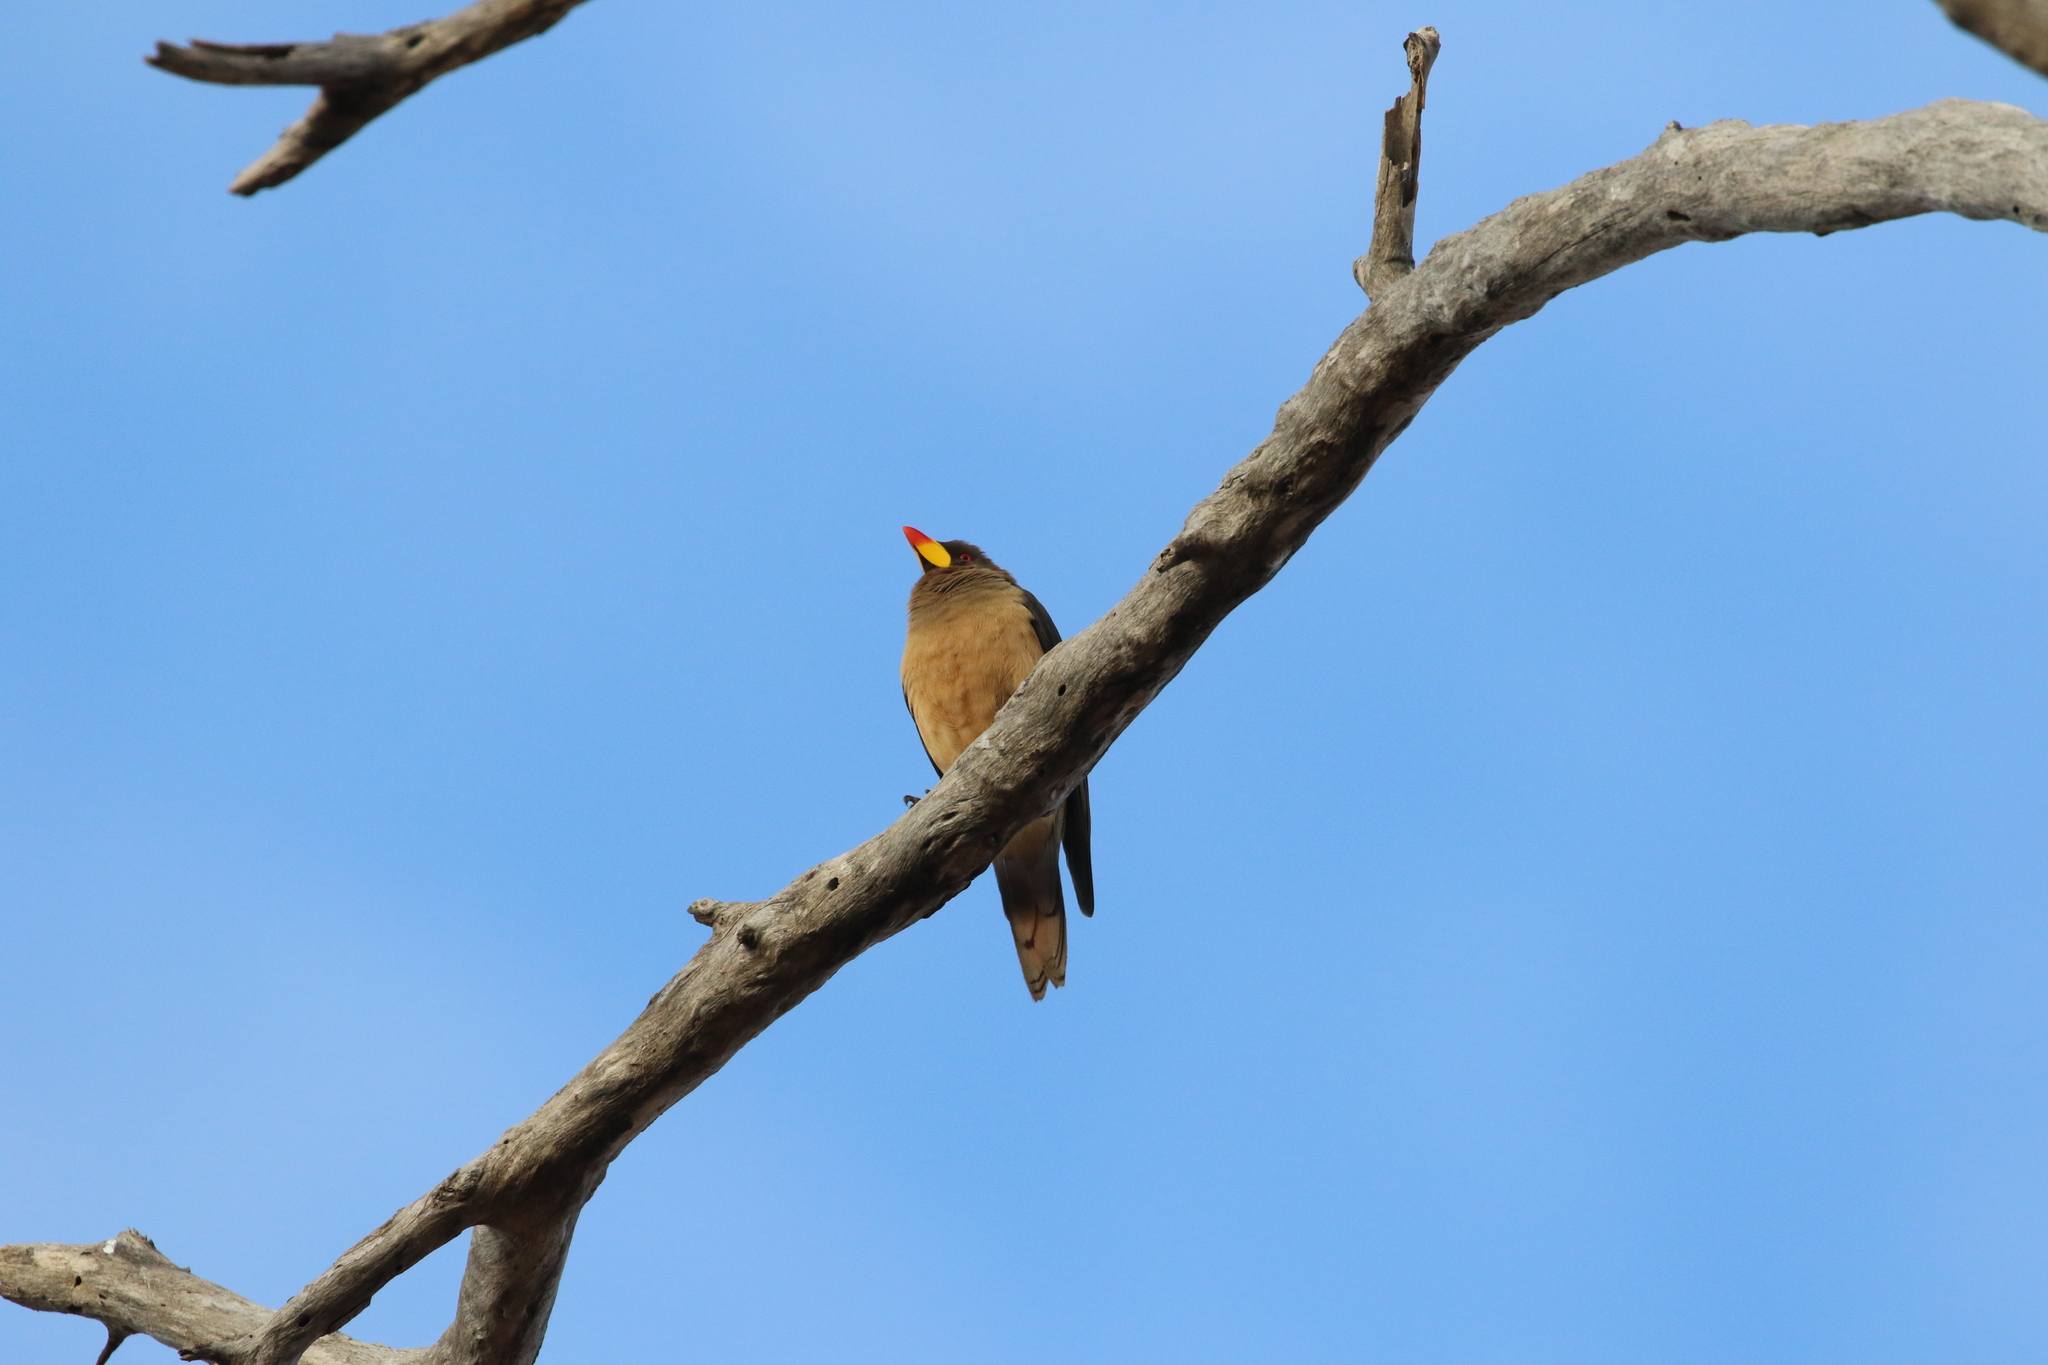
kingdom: Animalia
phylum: Chordata
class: Aves
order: Passeriformes
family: Buphagidae
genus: Buphagus
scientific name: Buphagus africanus
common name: Yellow-billed oxpecker
